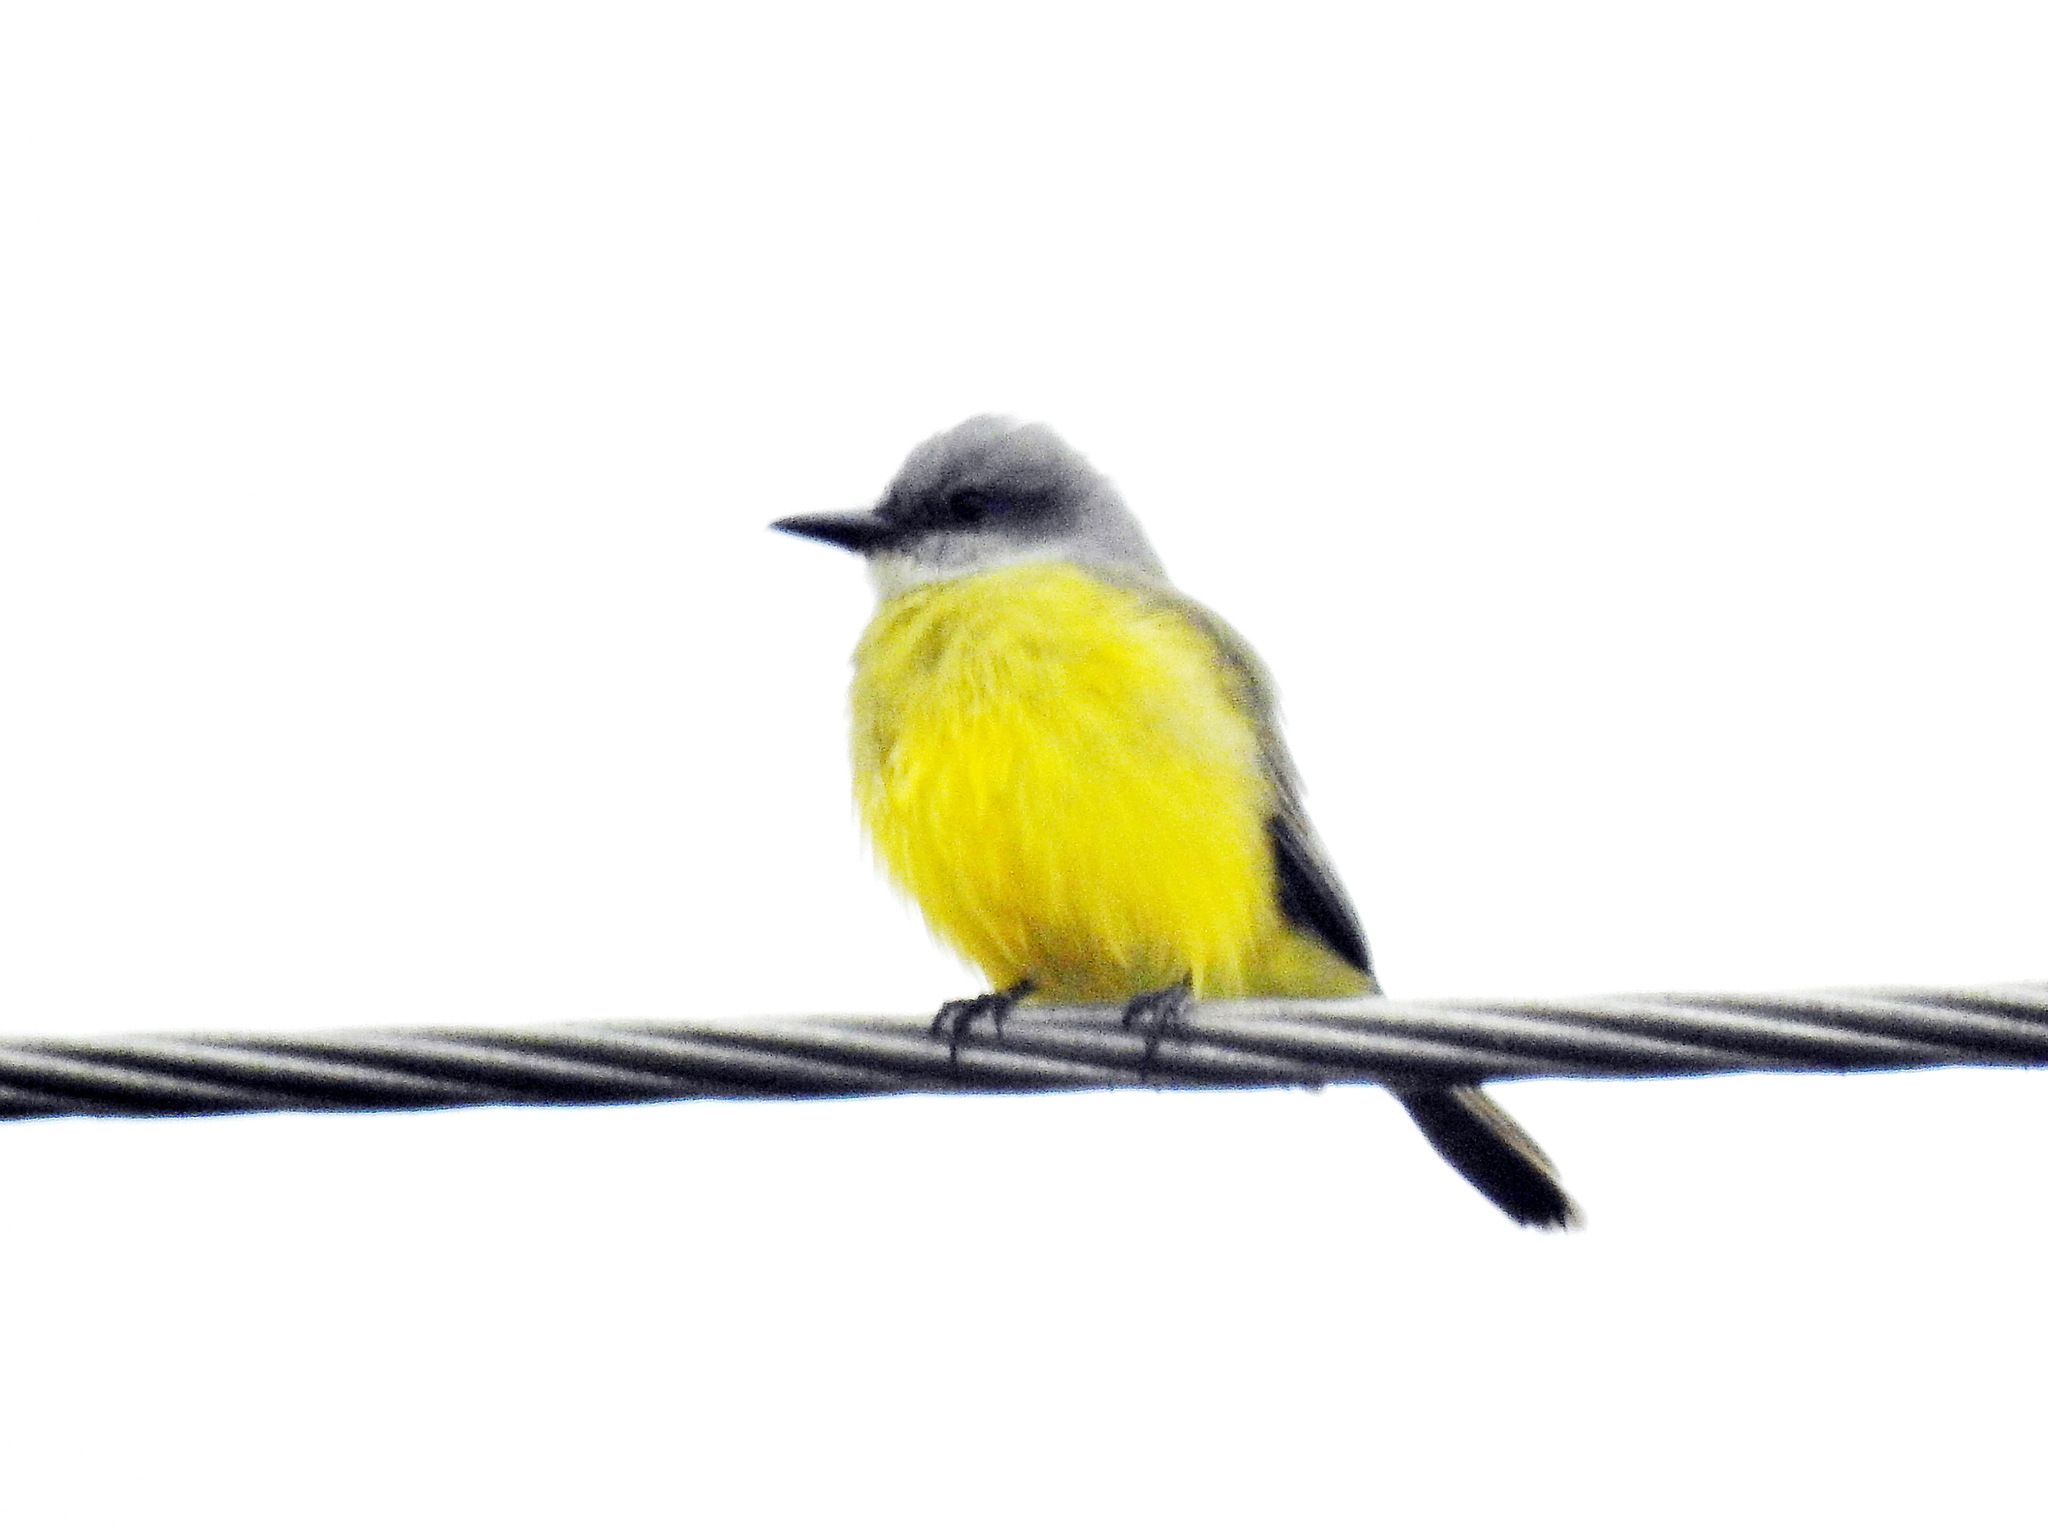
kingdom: Animalia
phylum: Chordata
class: Aves
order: Passeriformes
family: Tyrannidae
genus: Tyrannus
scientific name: Tyrannus
